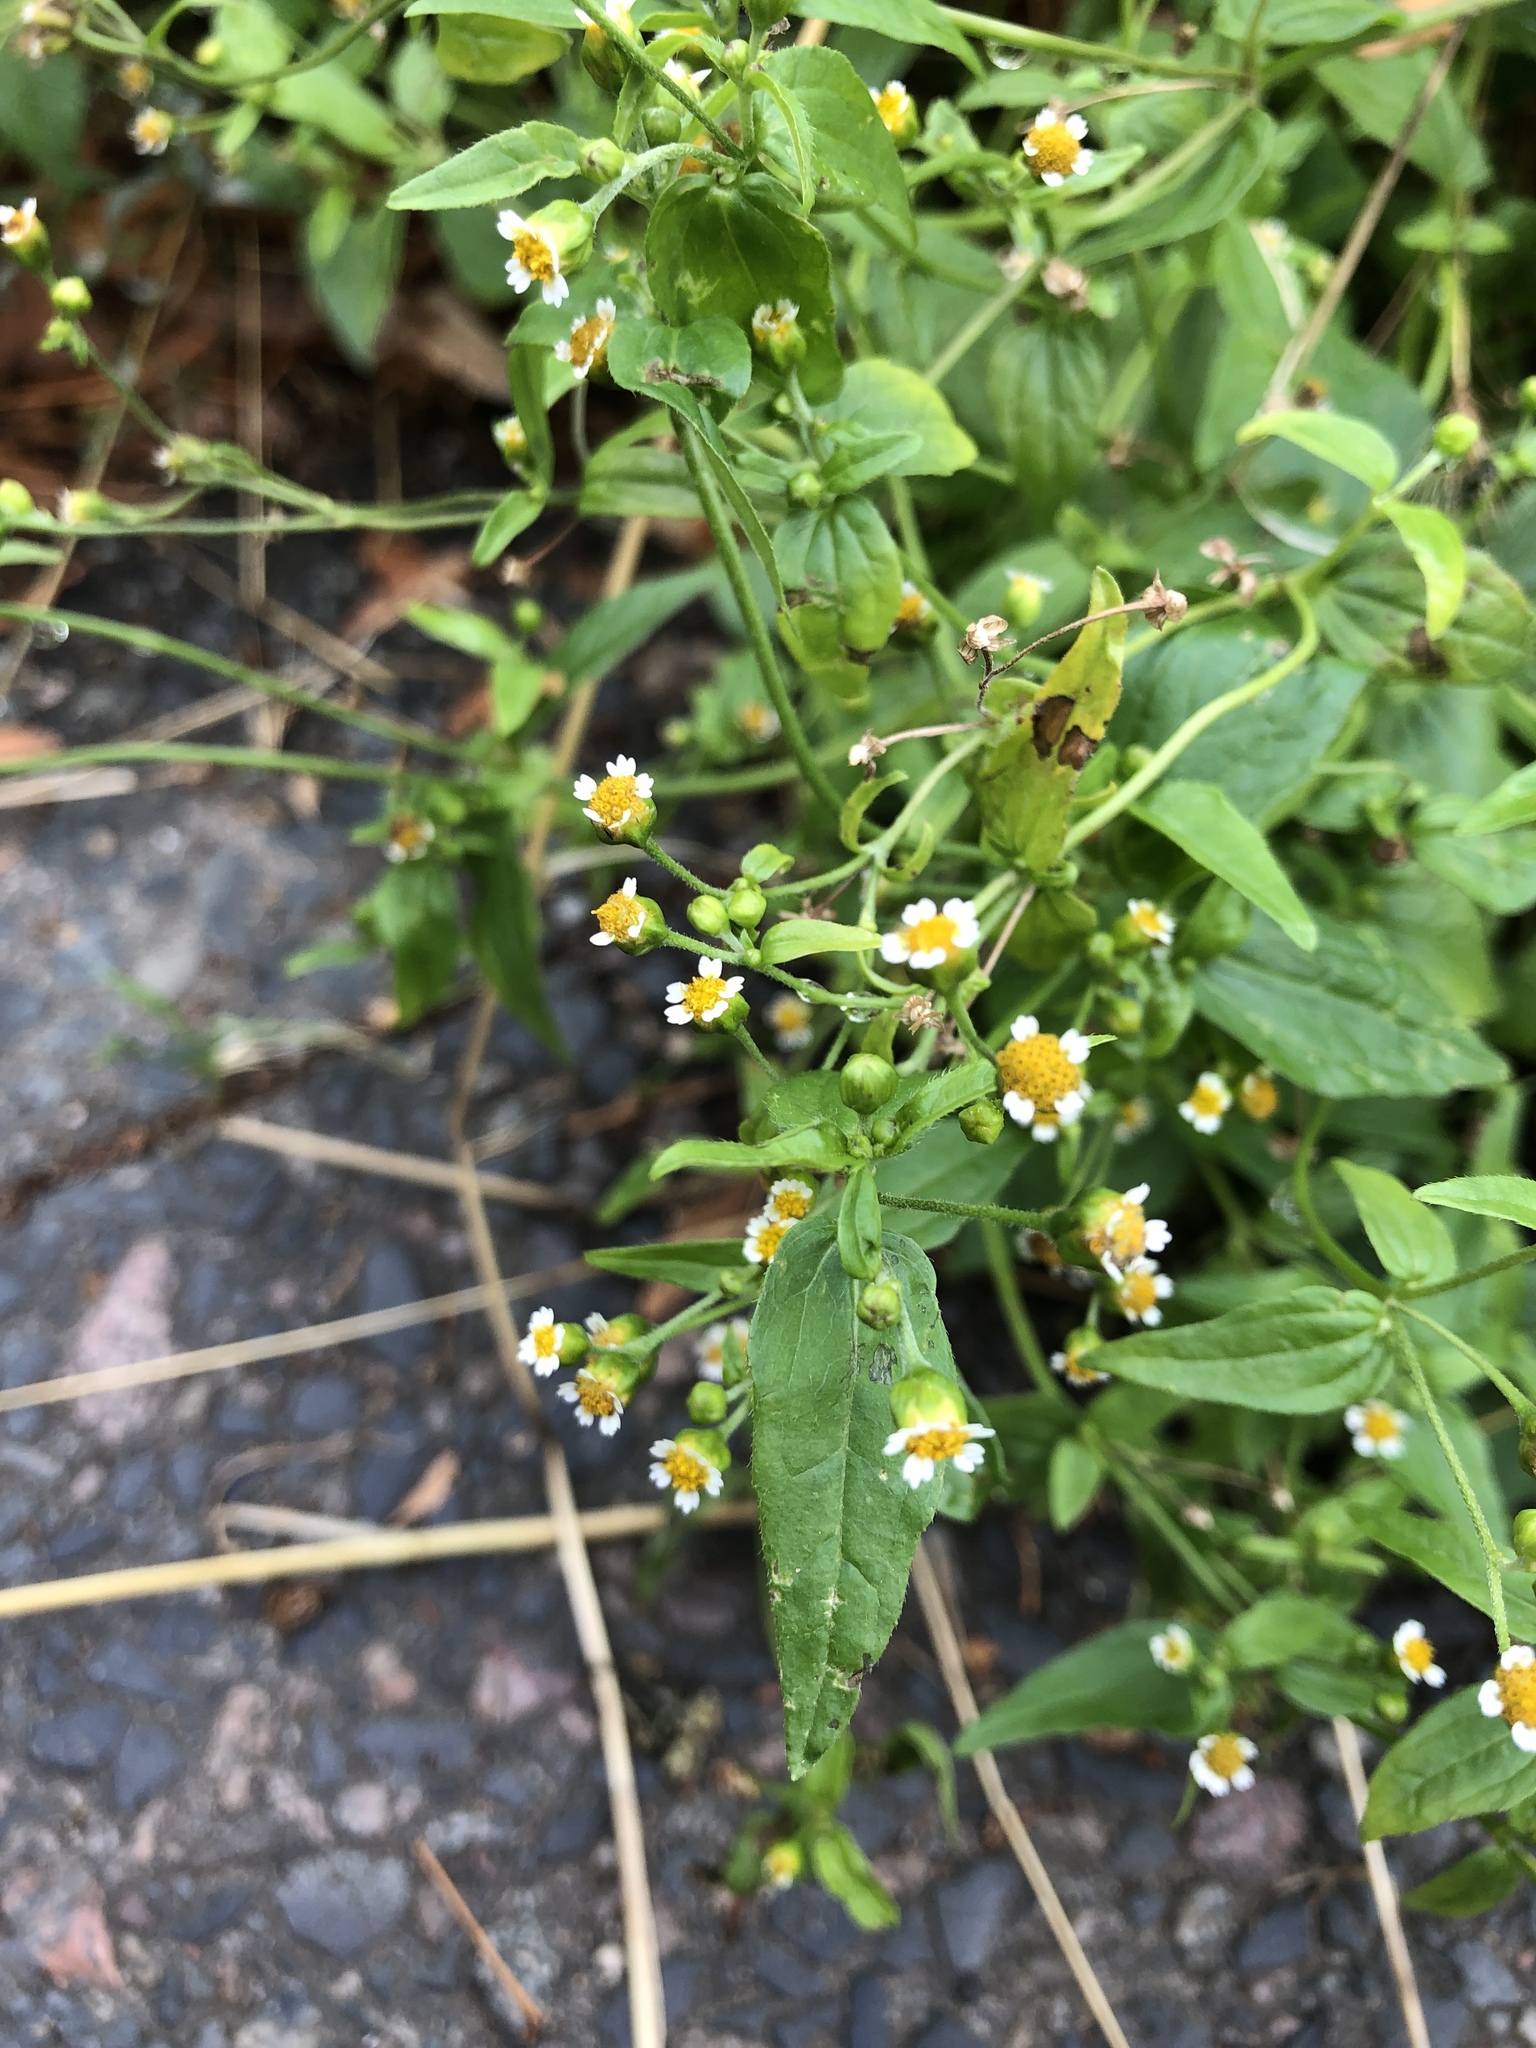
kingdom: Plantae
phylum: Tracheophyta
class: Magnoliopsida
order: Asterales
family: Asteraceae
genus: Galinsoga
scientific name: Galinsoga quadriradiata
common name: Shaggy soldier
